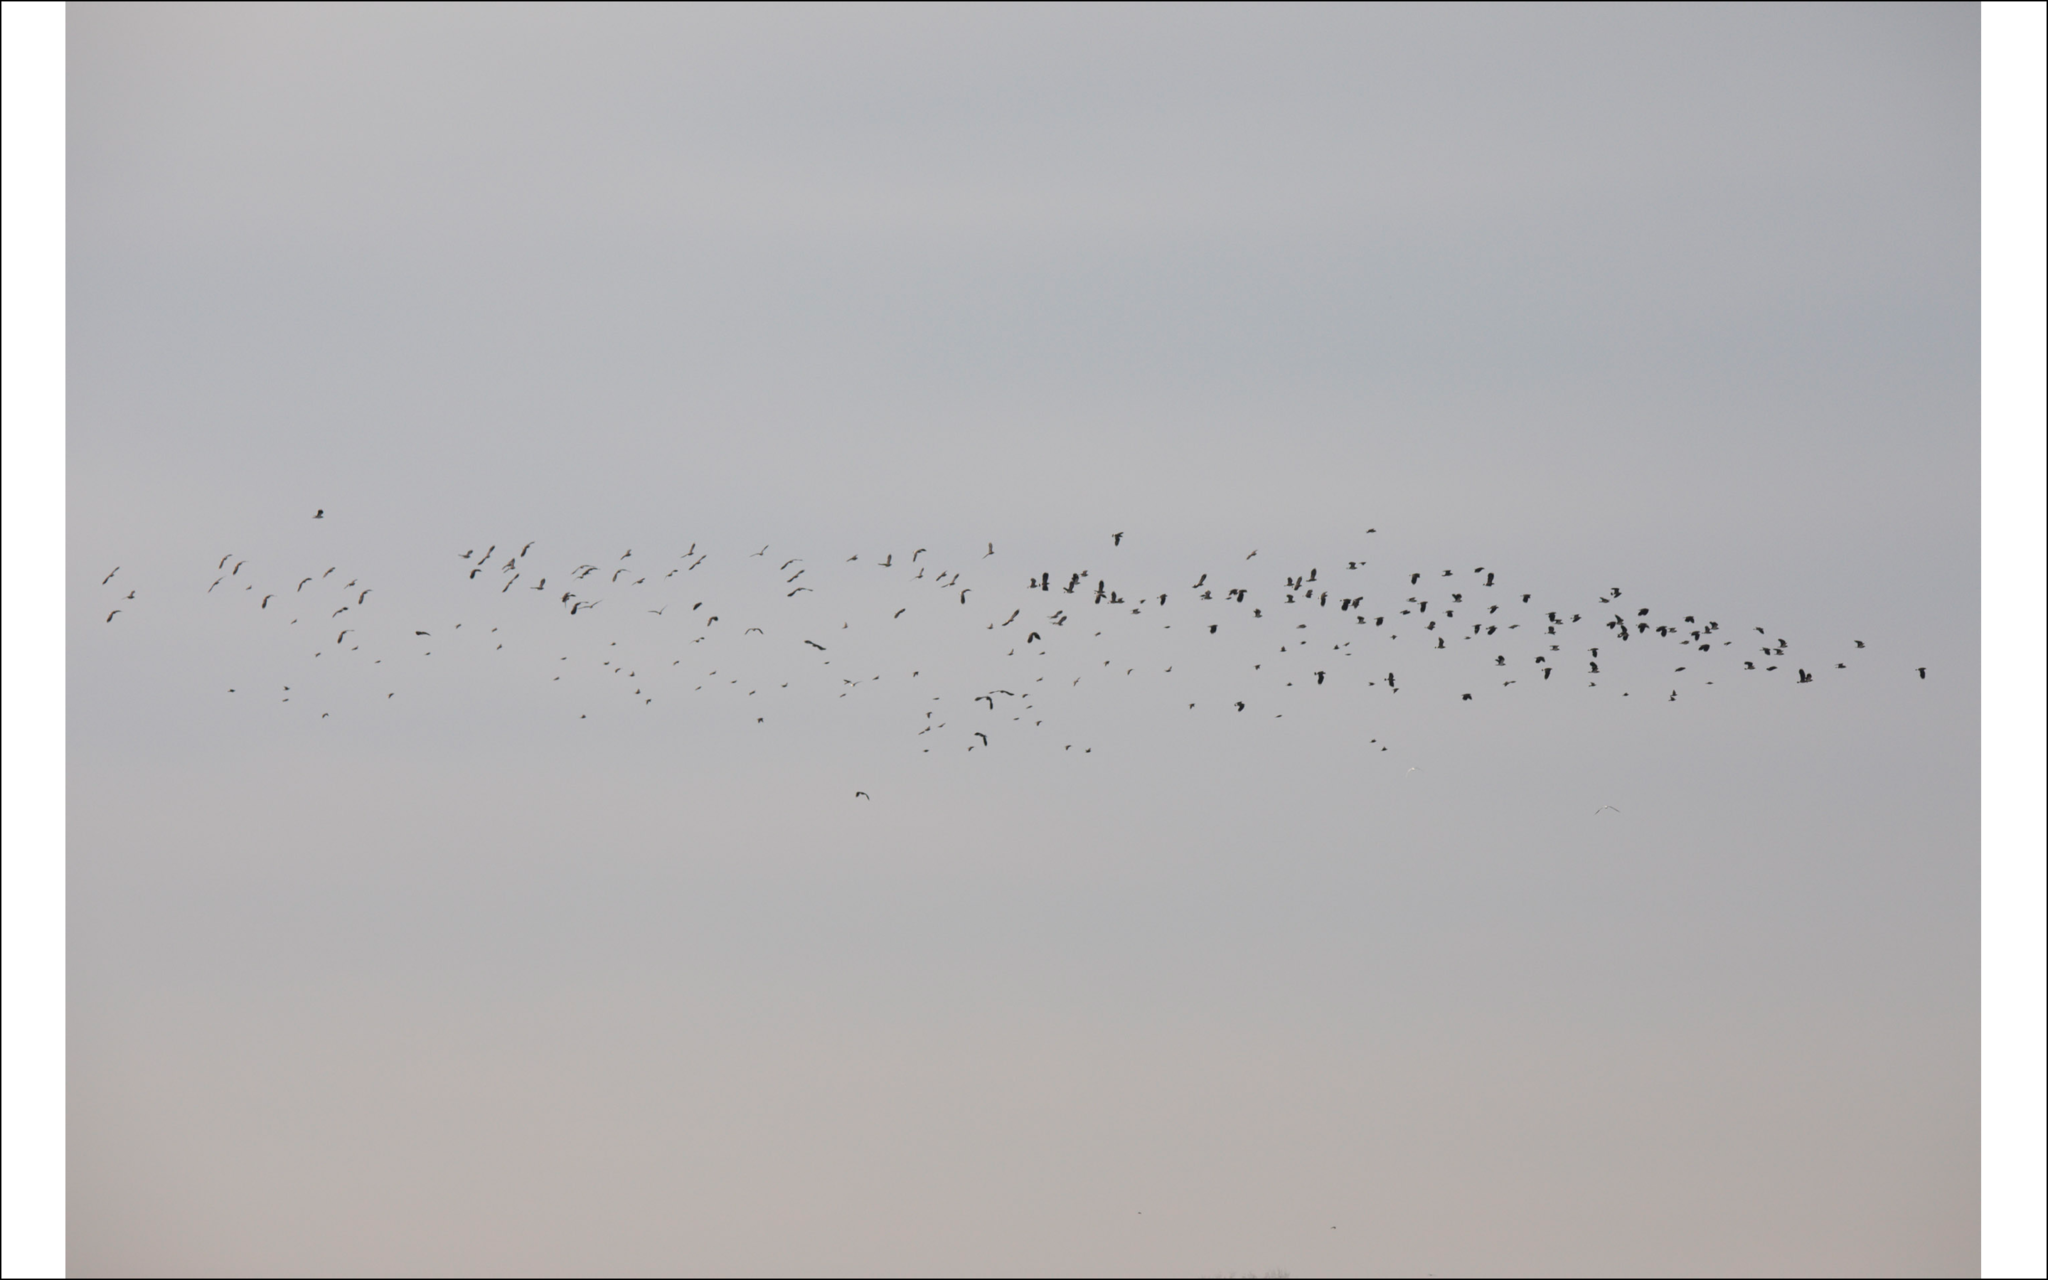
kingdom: Animalia
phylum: Chordata
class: Aves
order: Charadriiformes
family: Charadriidae
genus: Vanellus
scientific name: Vanellus vanellus
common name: Northern lapwing
